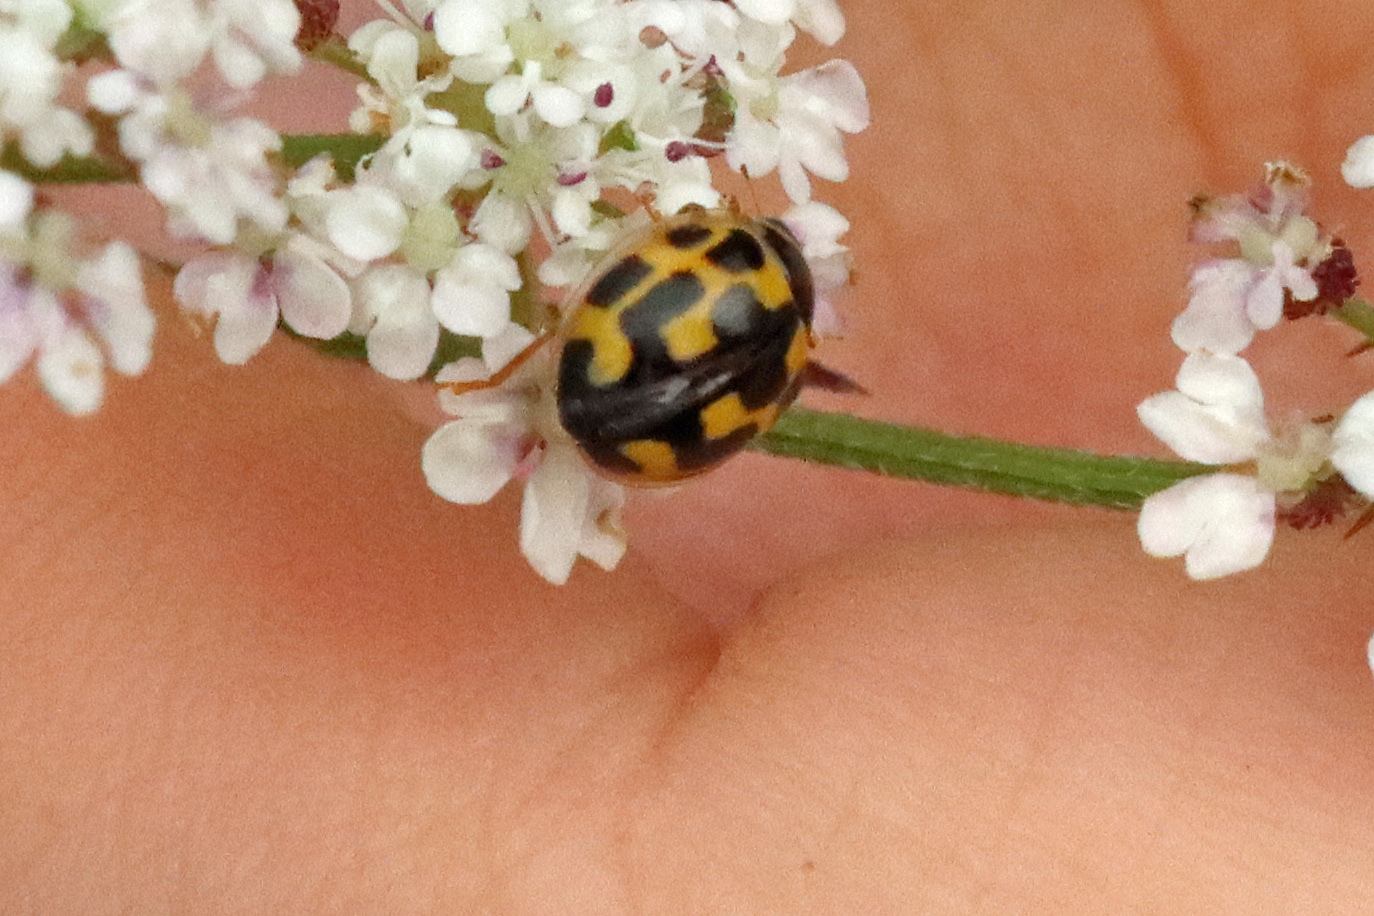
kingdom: Animalia
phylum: Arthropoda
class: Insecta
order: Coleoptera
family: Coccinellidae
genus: Propylaea
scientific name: Propylaea quatuordecimpunctata
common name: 14-spotted ladybird beetle
